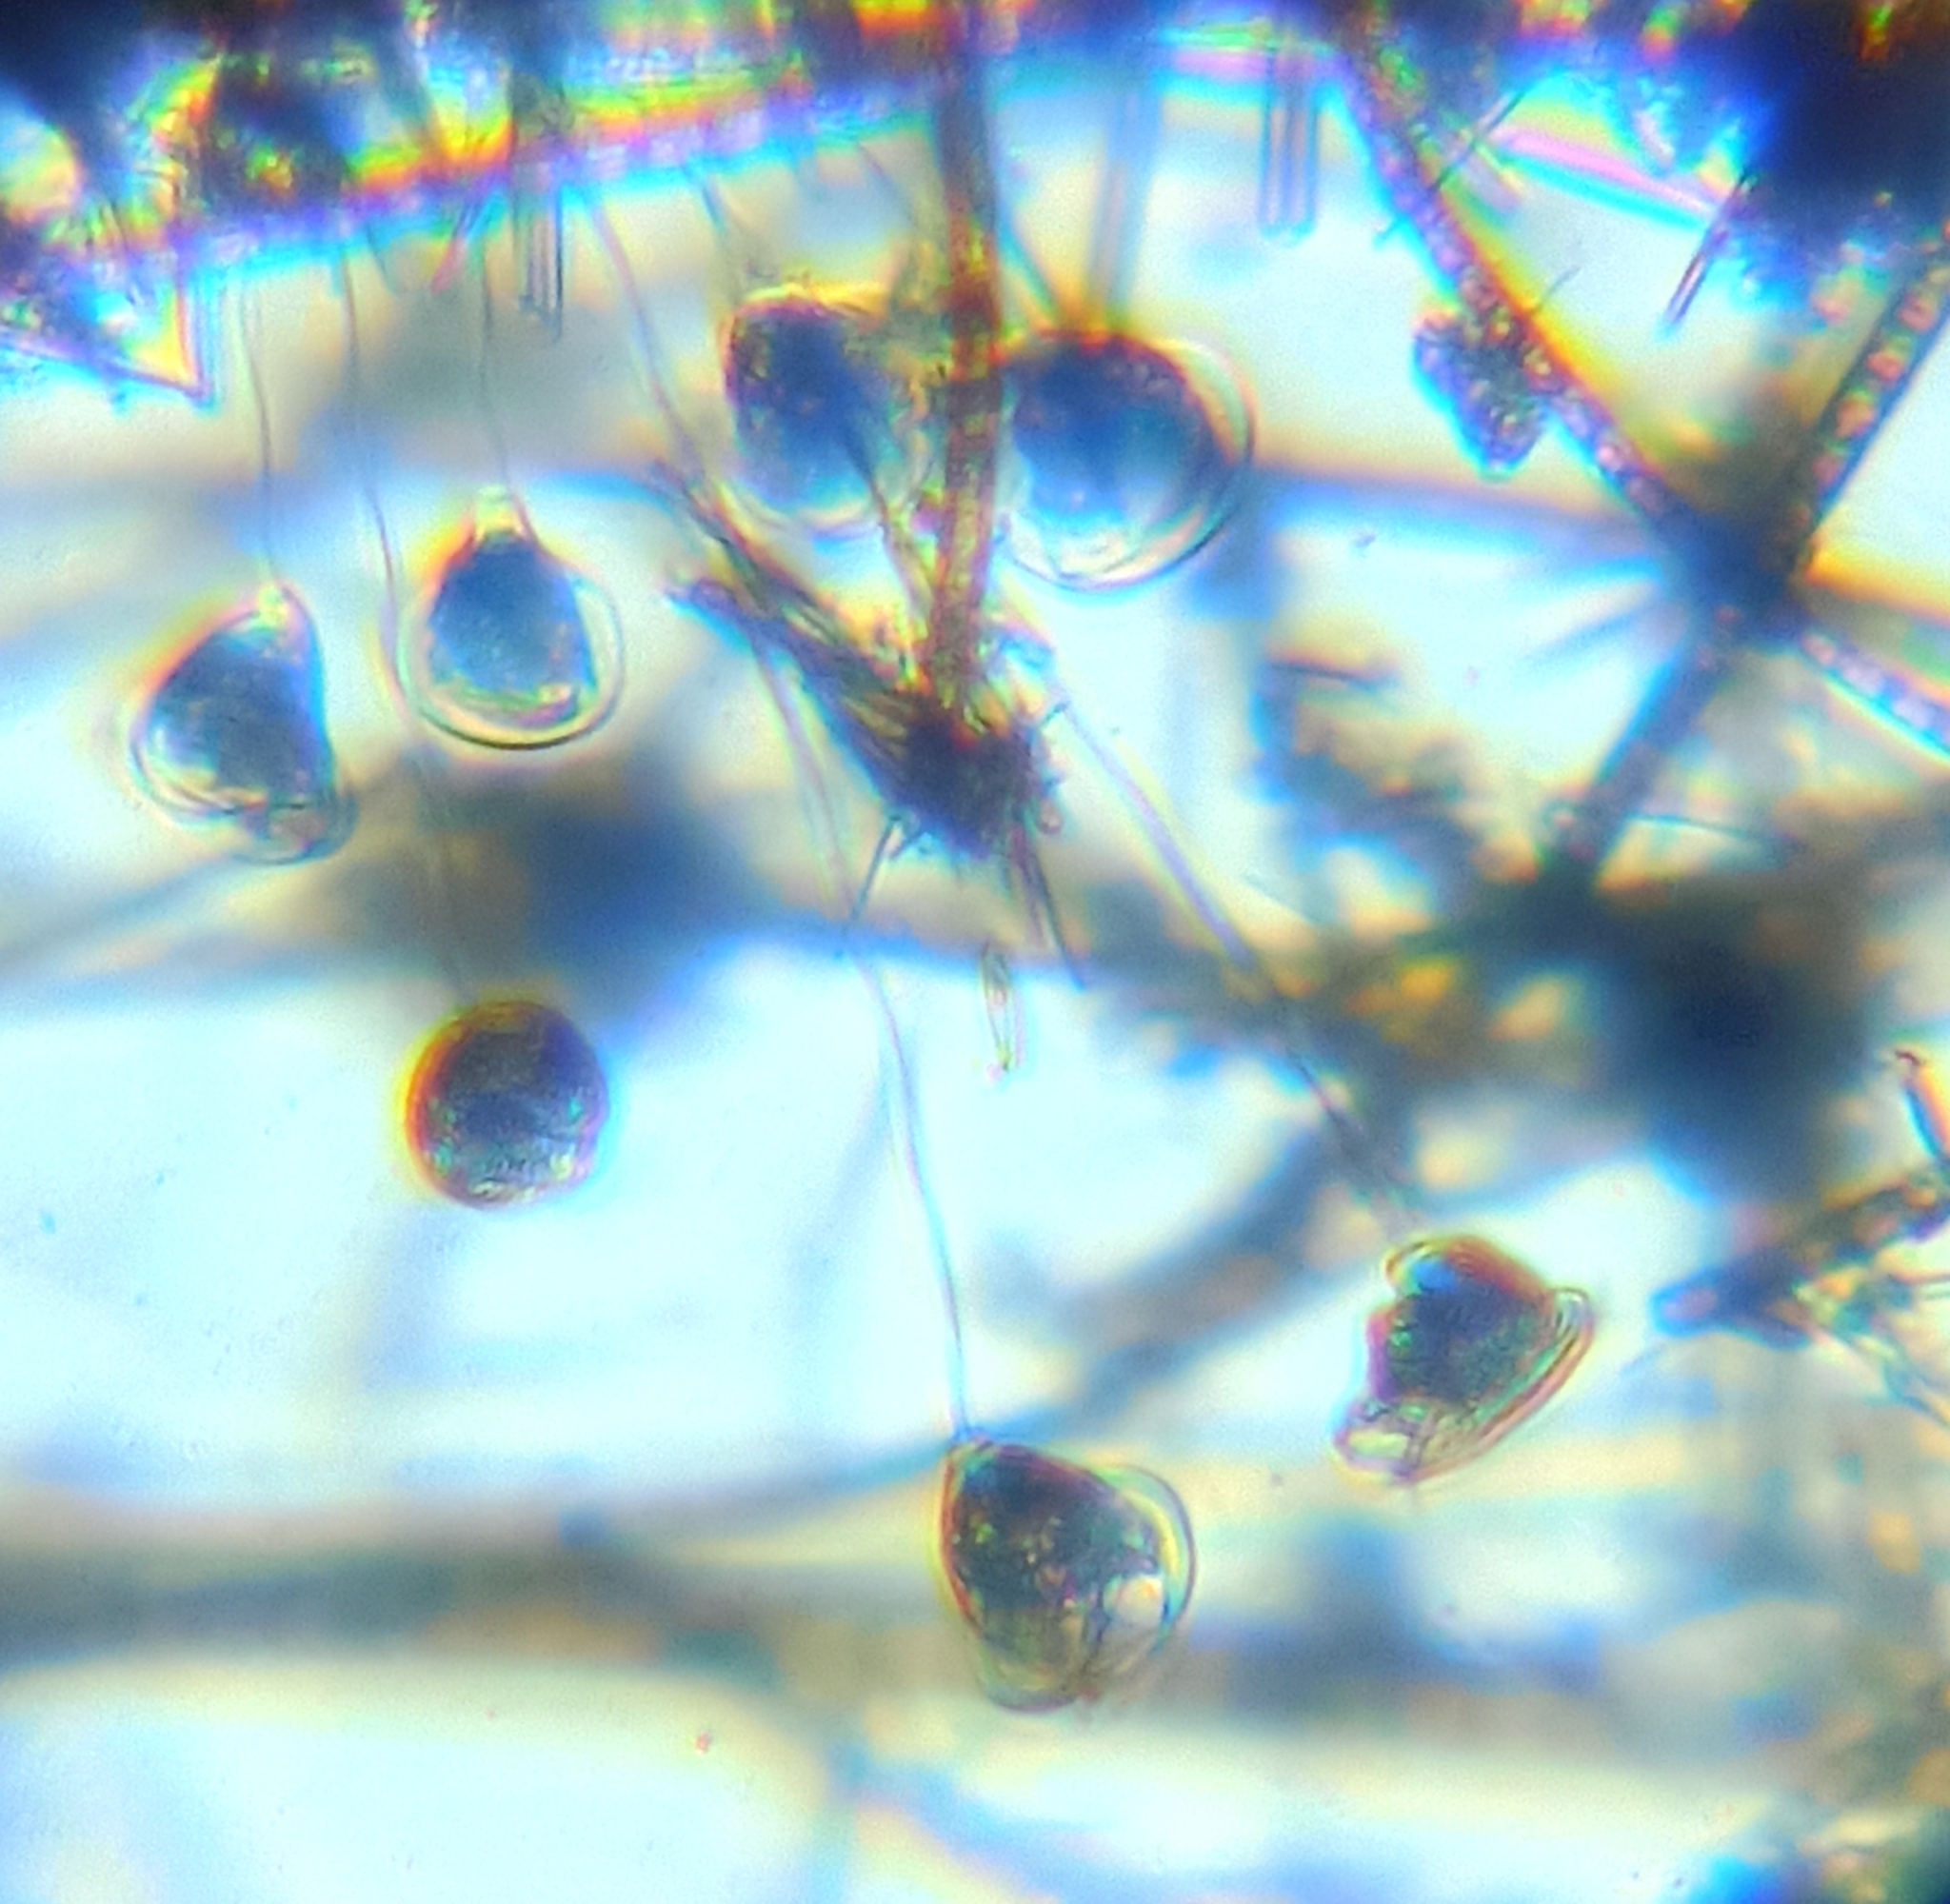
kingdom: Chromista
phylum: Ciliophora
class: Oligohymenophorea
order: Peritrichida
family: Vorticellidae
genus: Vorticella
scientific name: Vorticella campanulla
